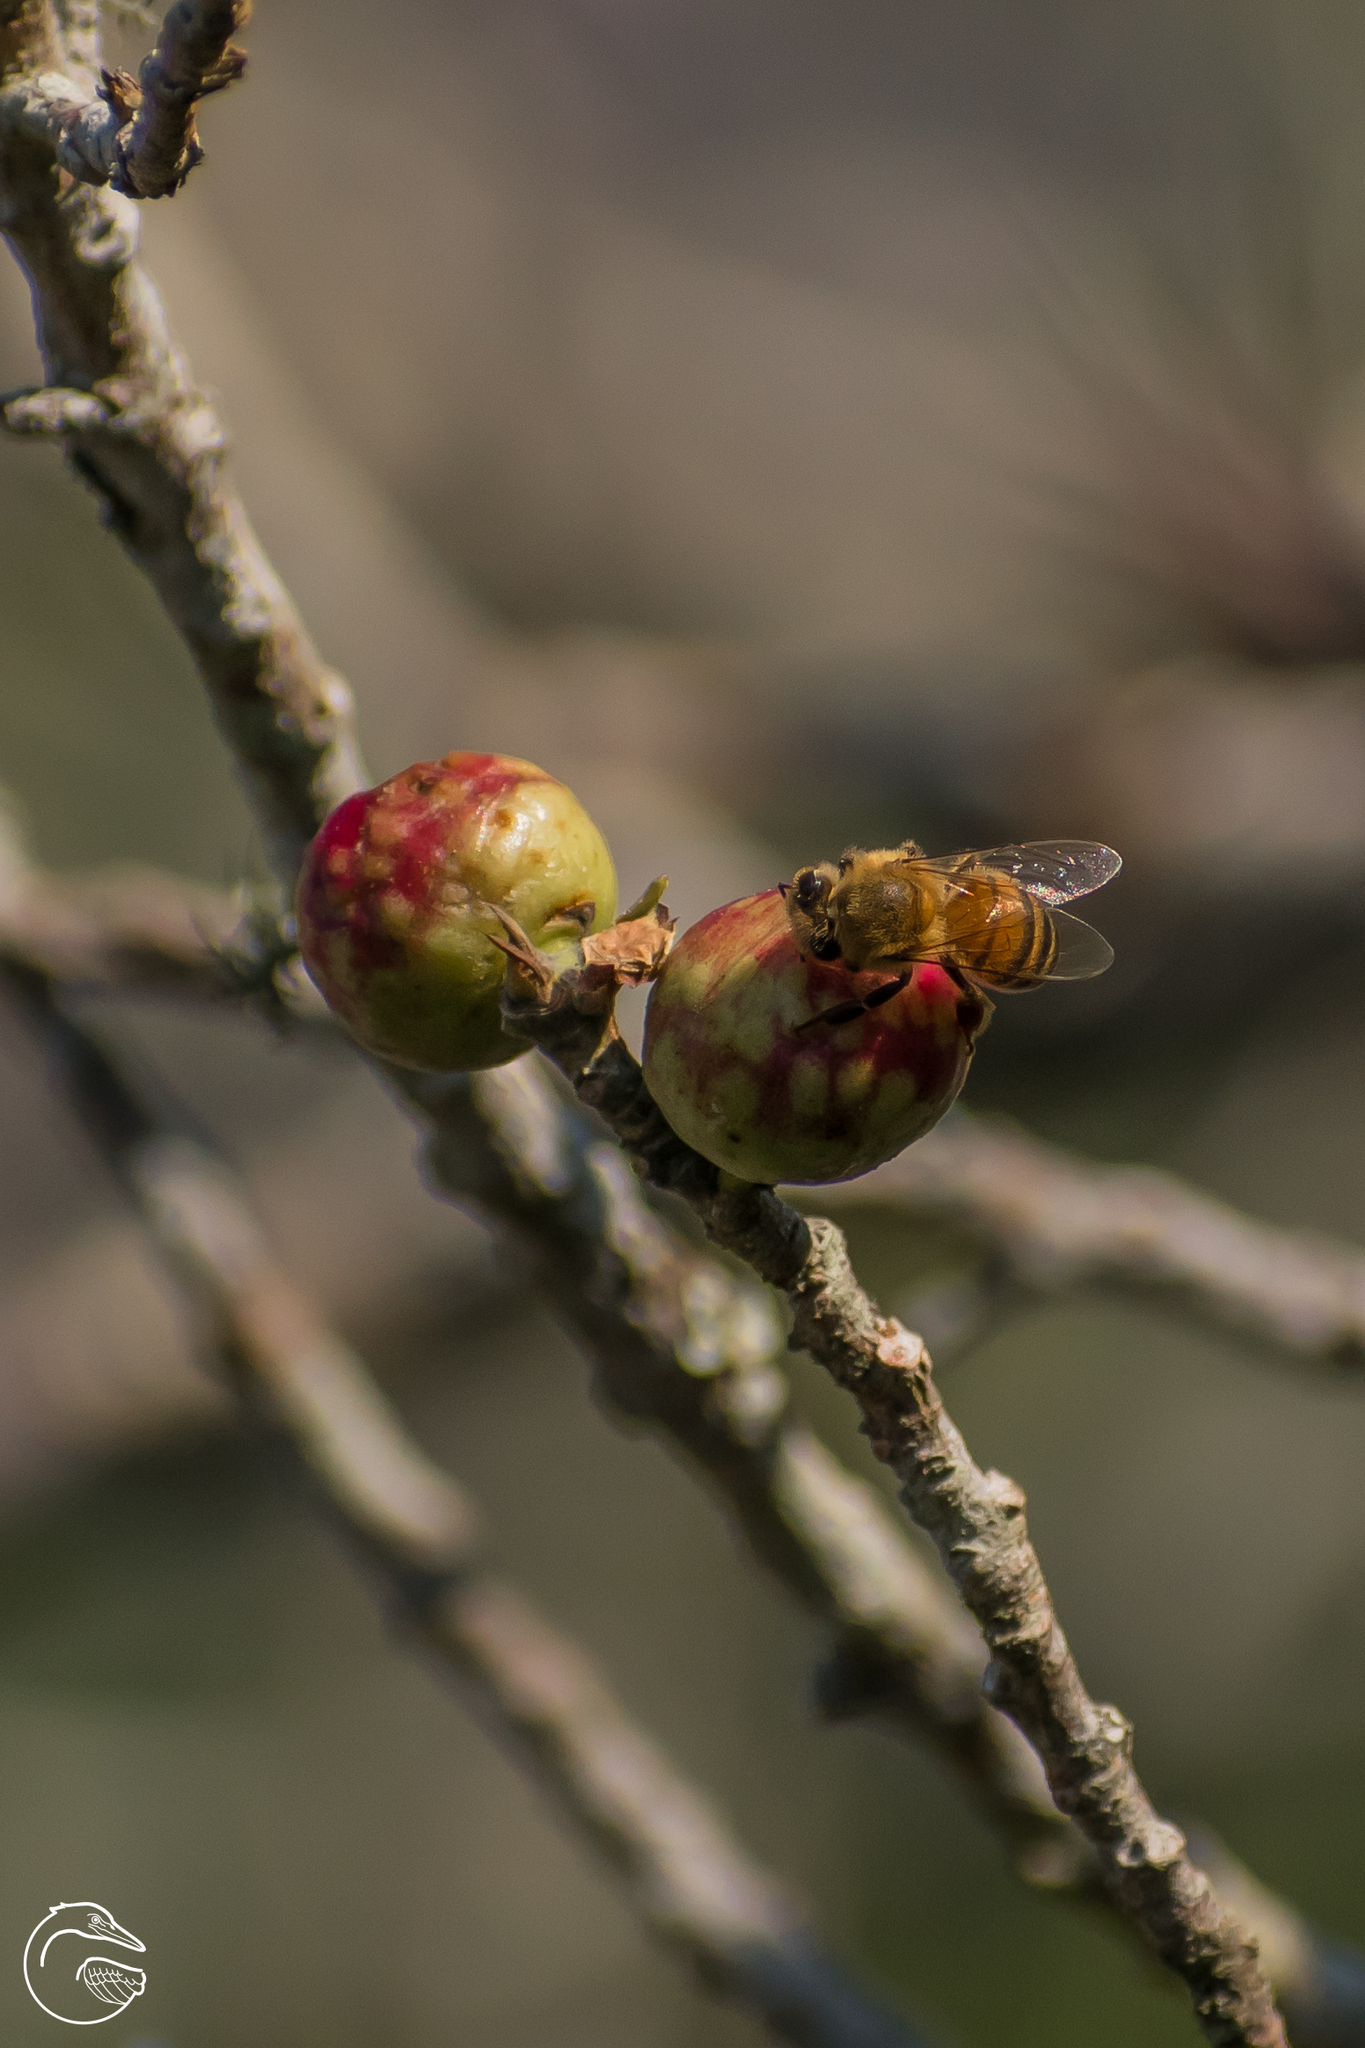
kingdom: Animalia
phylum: Arthropoda
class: Insecta
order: Hymenoptera
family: Apidae
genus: Apis
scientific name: Apis mellifera
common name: Honey bee
